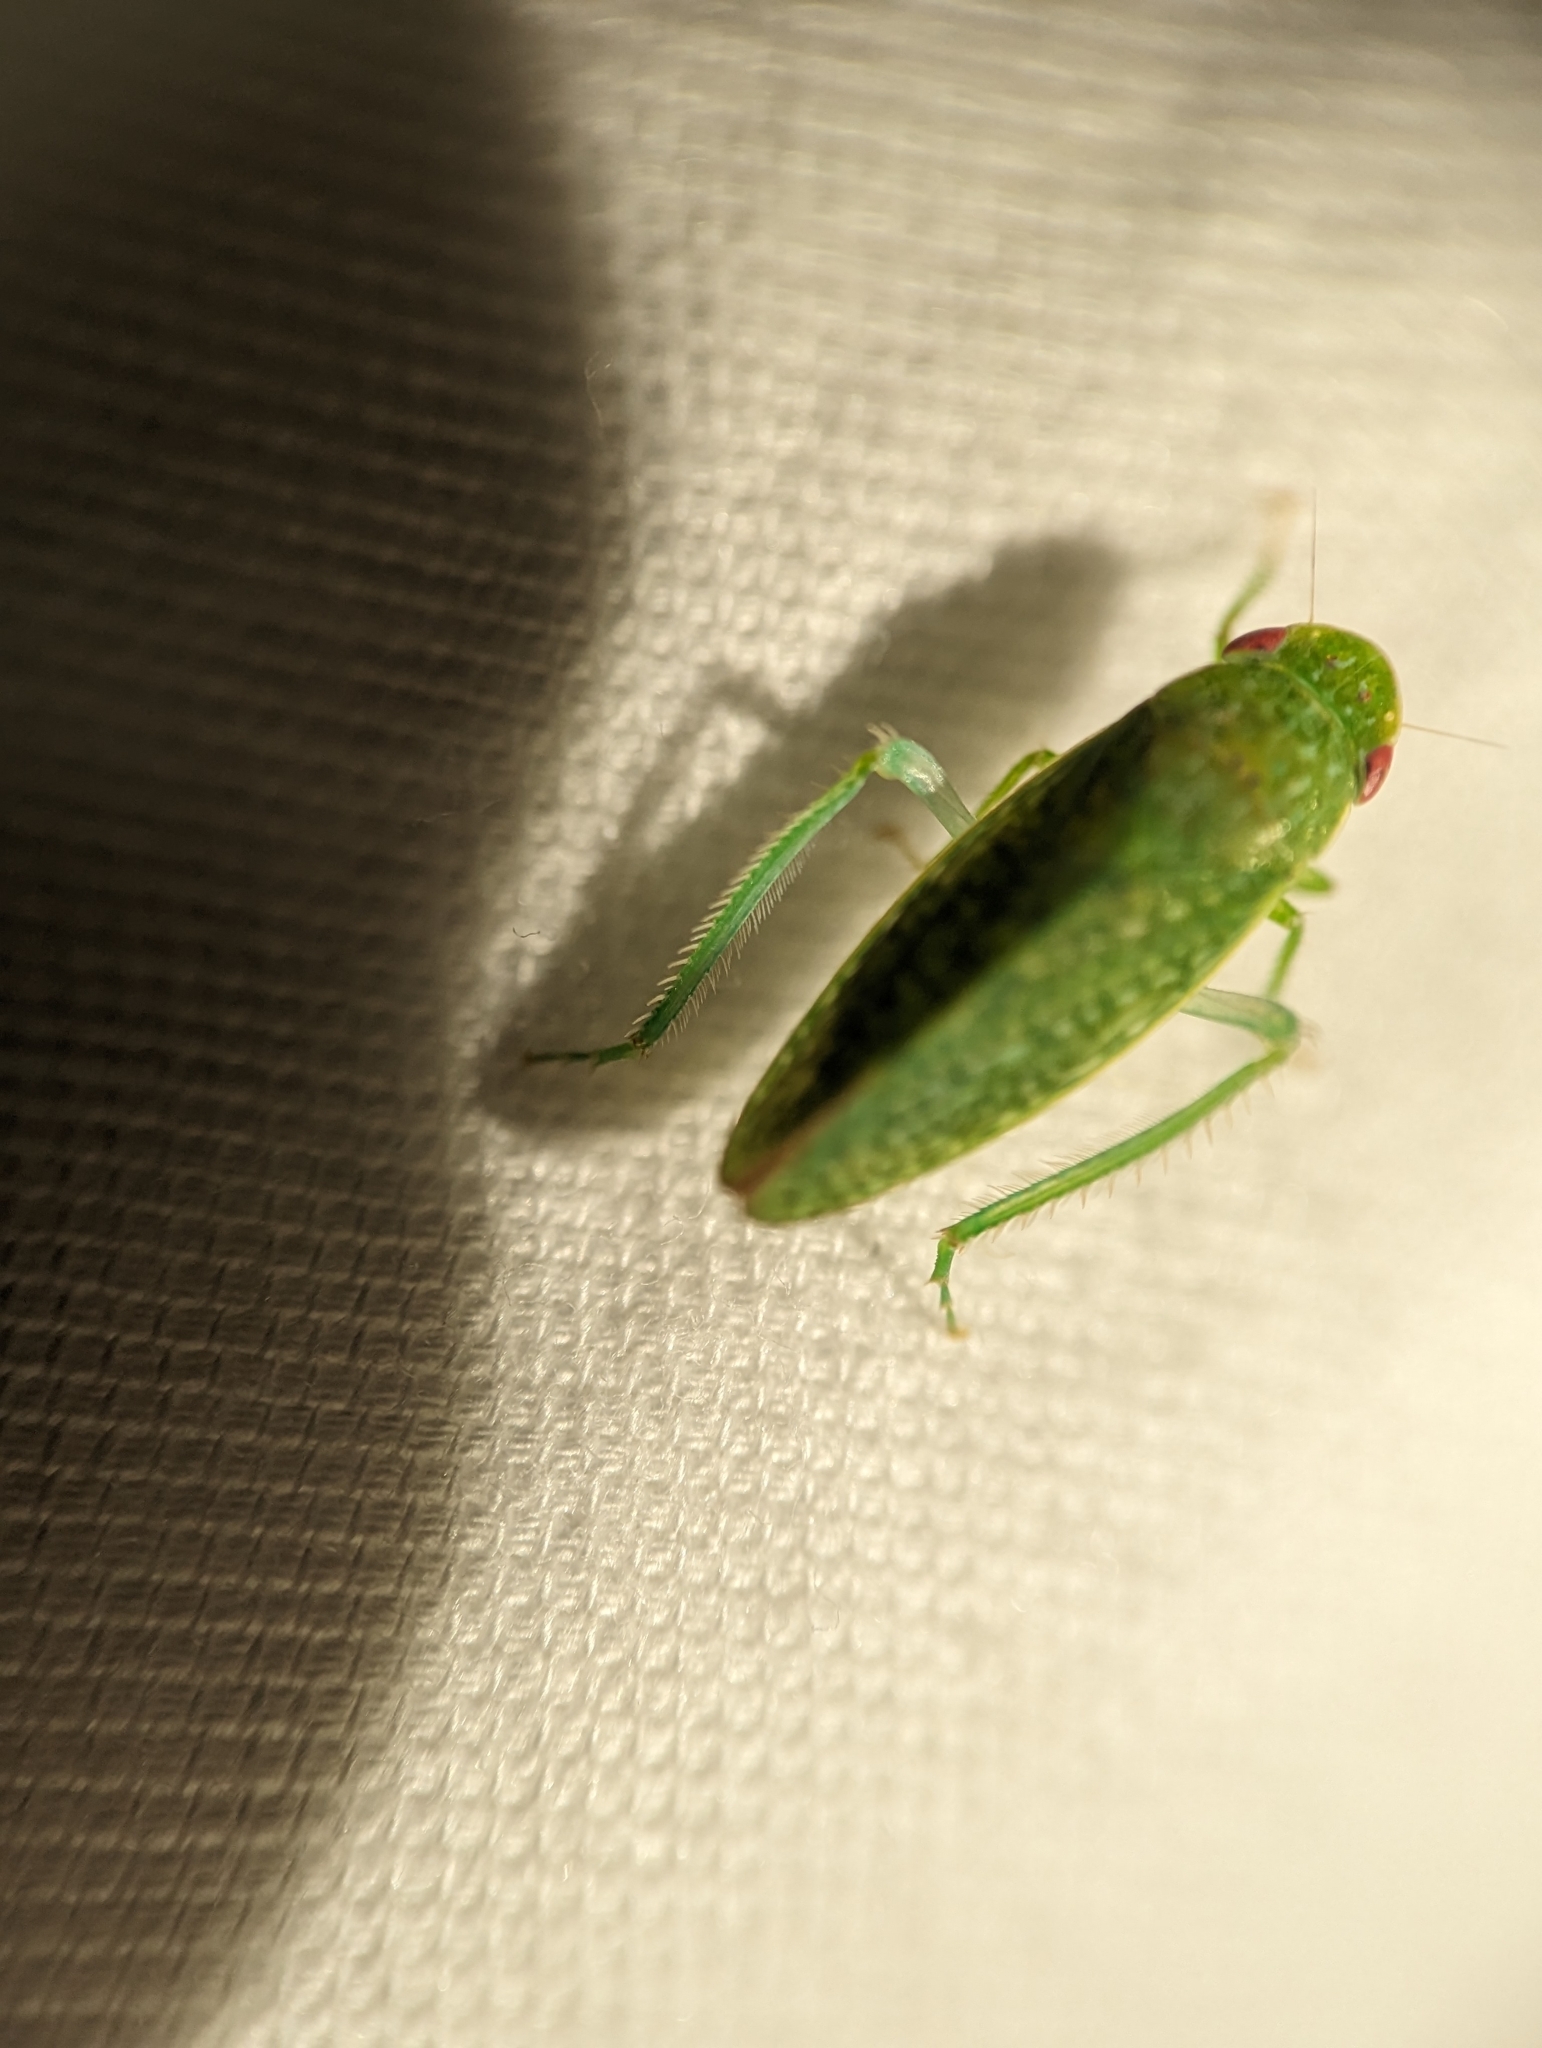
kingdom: Animalia
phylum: Arthropoda
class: Insecta
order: Hemiptera
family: Cicadellidae
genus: Rugosana
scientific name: Rugosana querci
